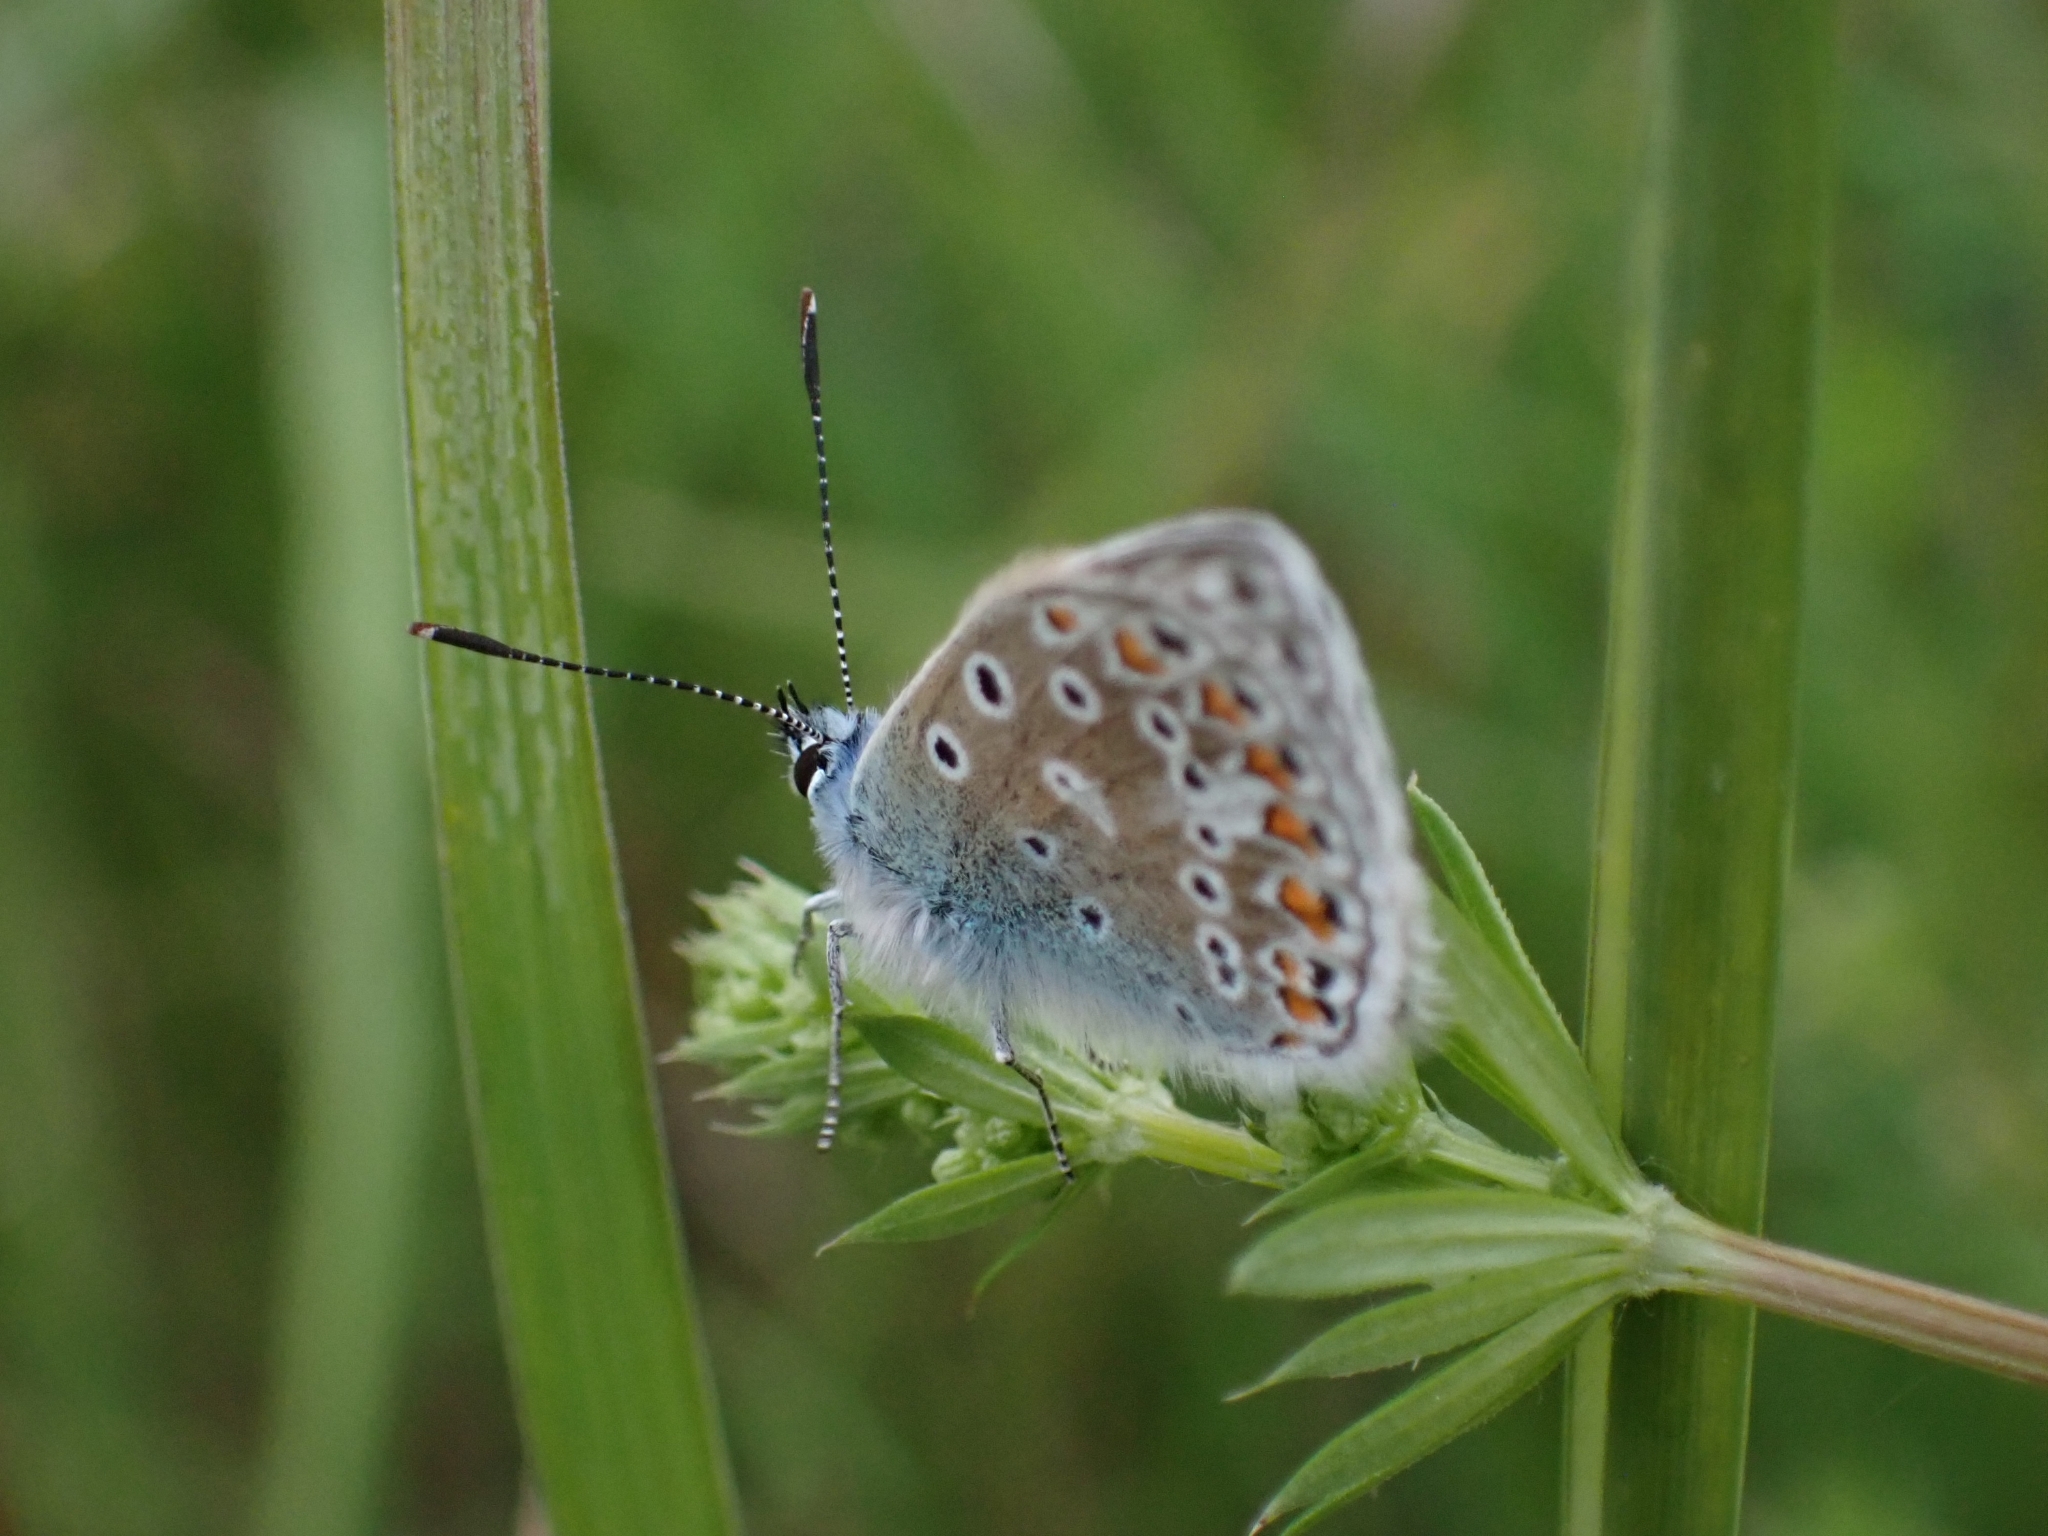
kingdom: Animalia
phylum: Arthropoda
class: Insecta
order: Lepidoptera
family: Lycaenidae
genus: Polyommatus
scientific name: Polyommatus icarus
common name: Common blue
